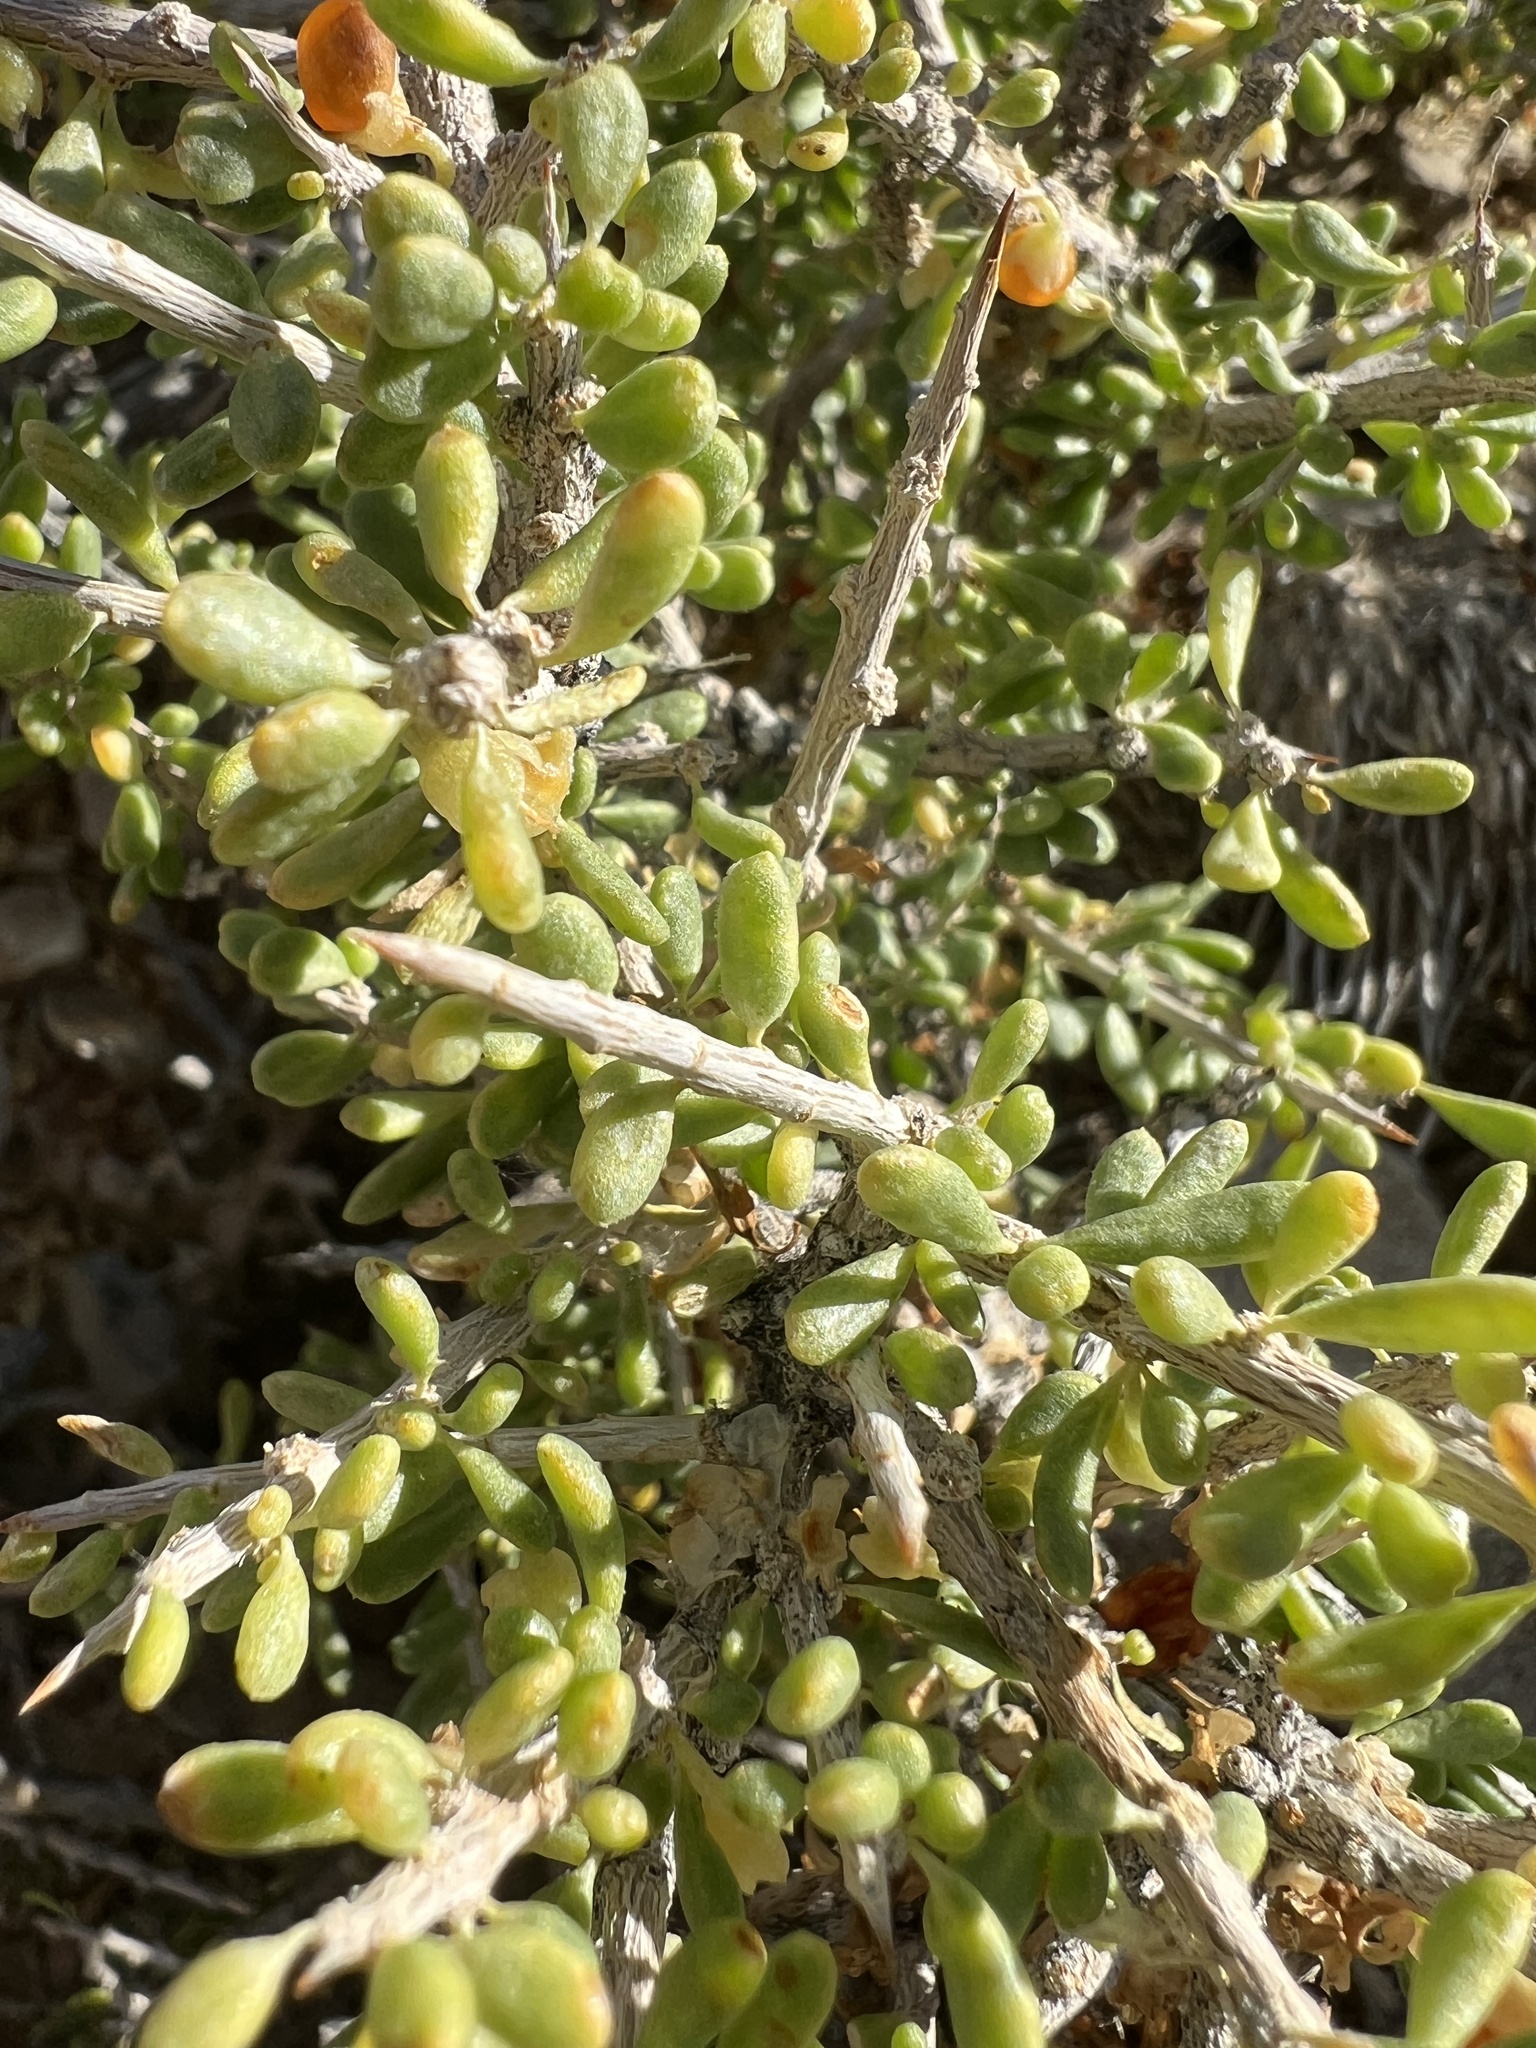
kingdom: Plantae
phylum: Tracheophyta
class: Magnoliopsida
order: Solanales
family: Solanaceae
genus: Lycium
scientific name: Lycium andersonii
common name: Water-jacket
